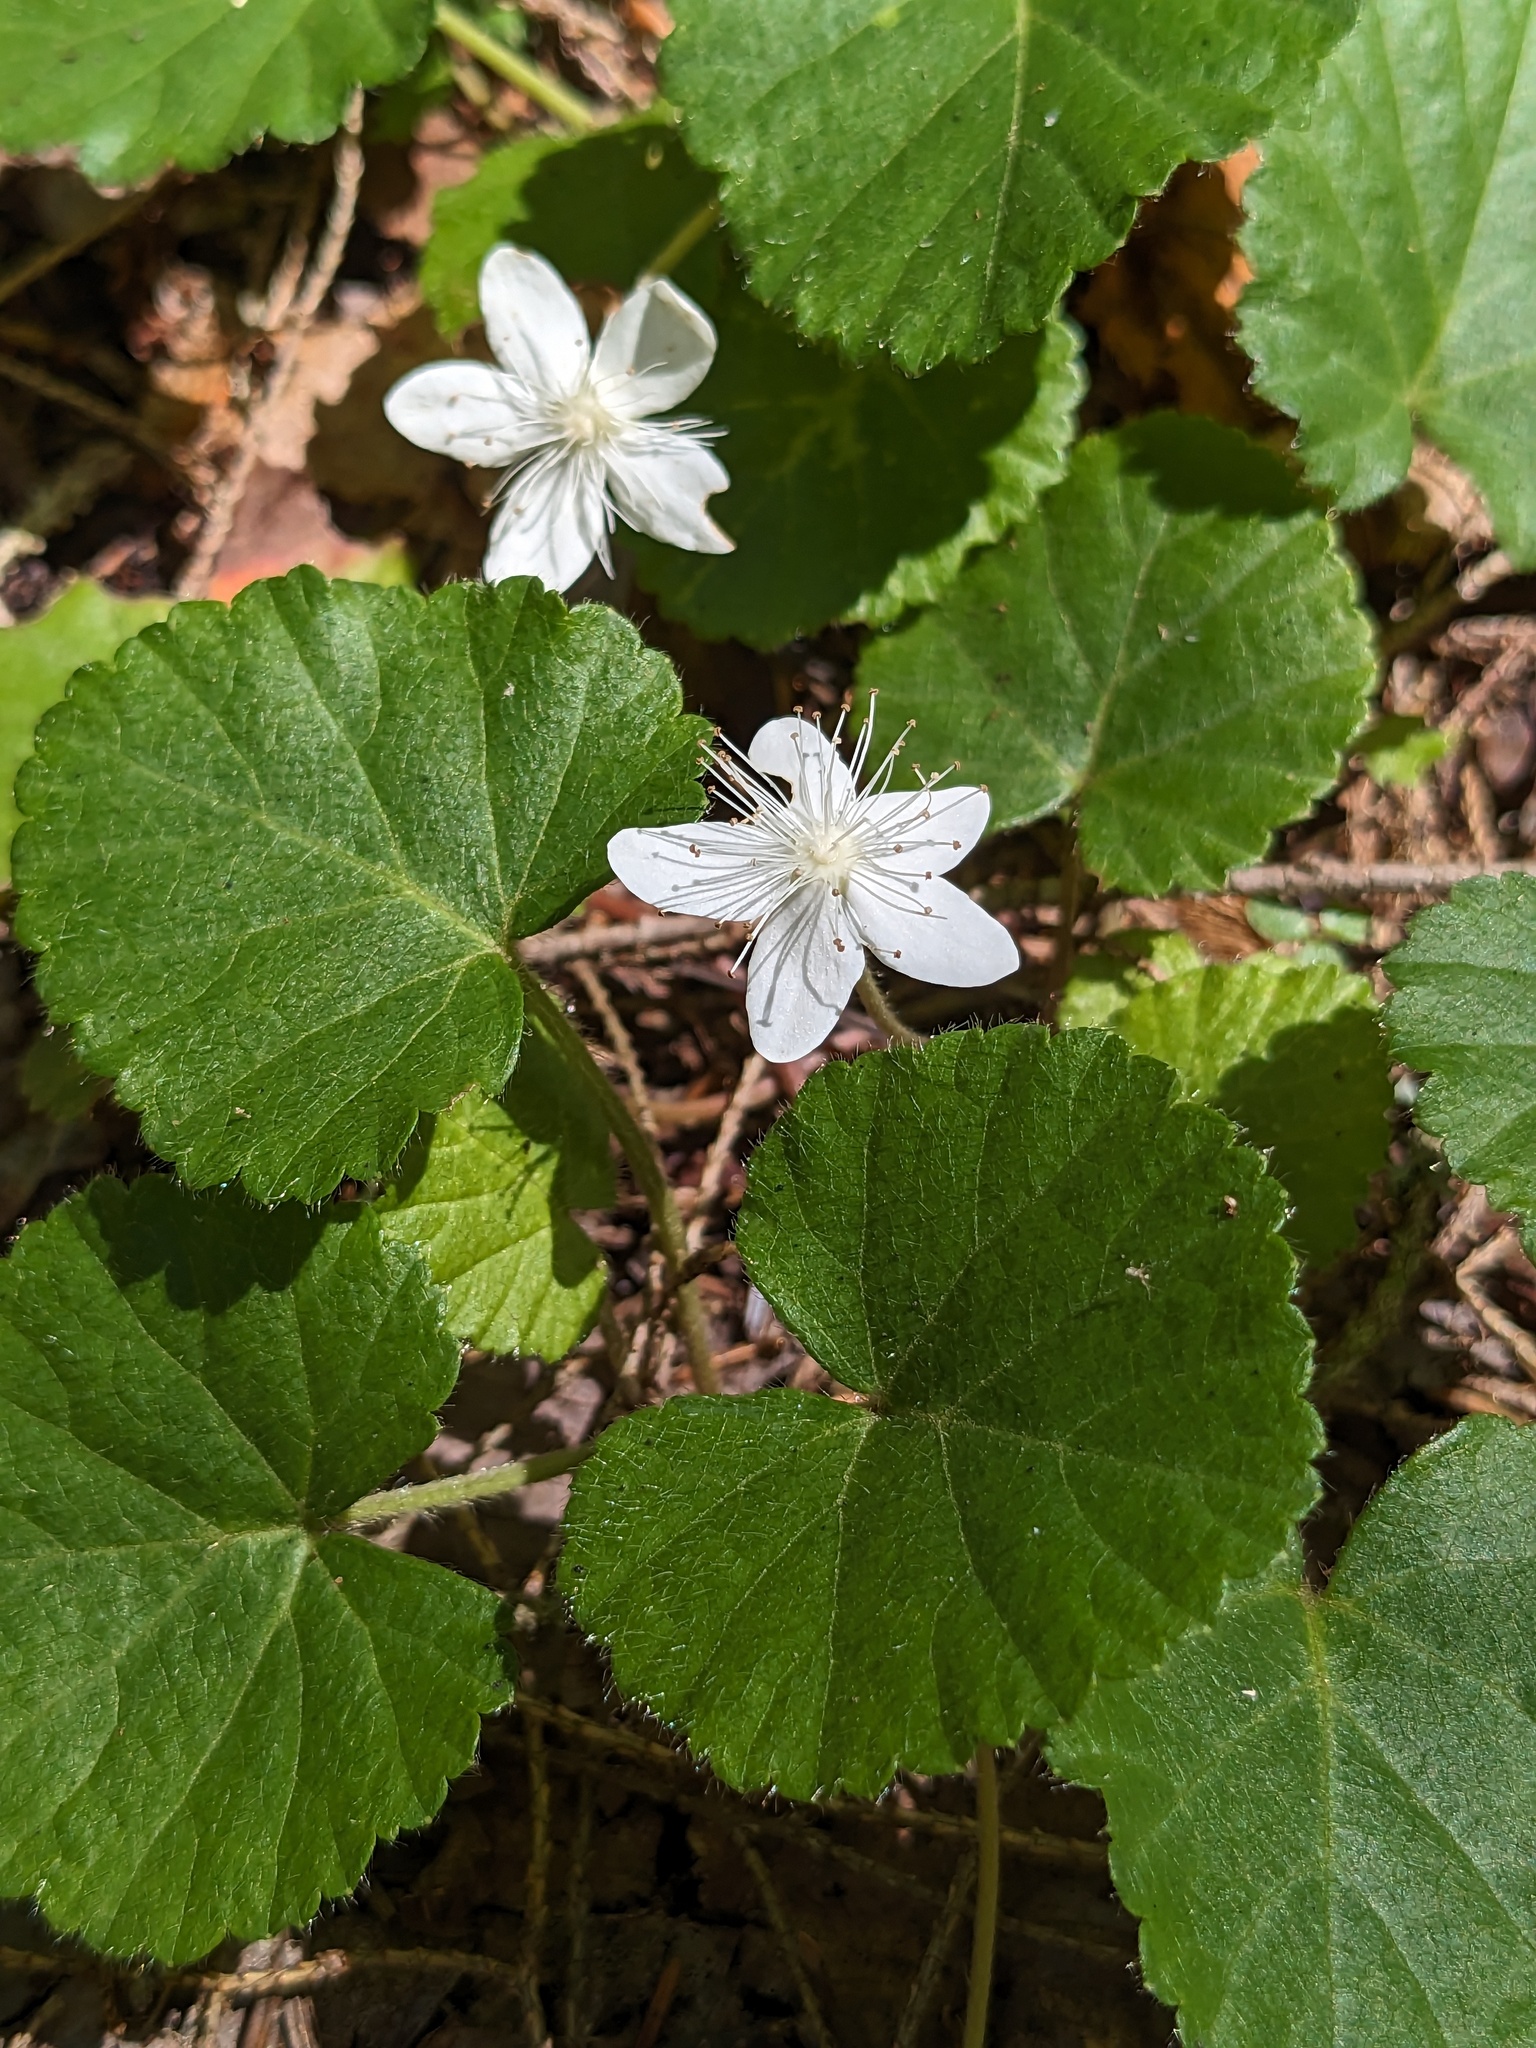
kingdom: Plantae
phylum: Tracheophyta
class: Magnoliopsida
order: Rosales
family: Rosaceae
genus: Dalibarda
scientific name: Dalibarda repens
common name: Dewdrop
